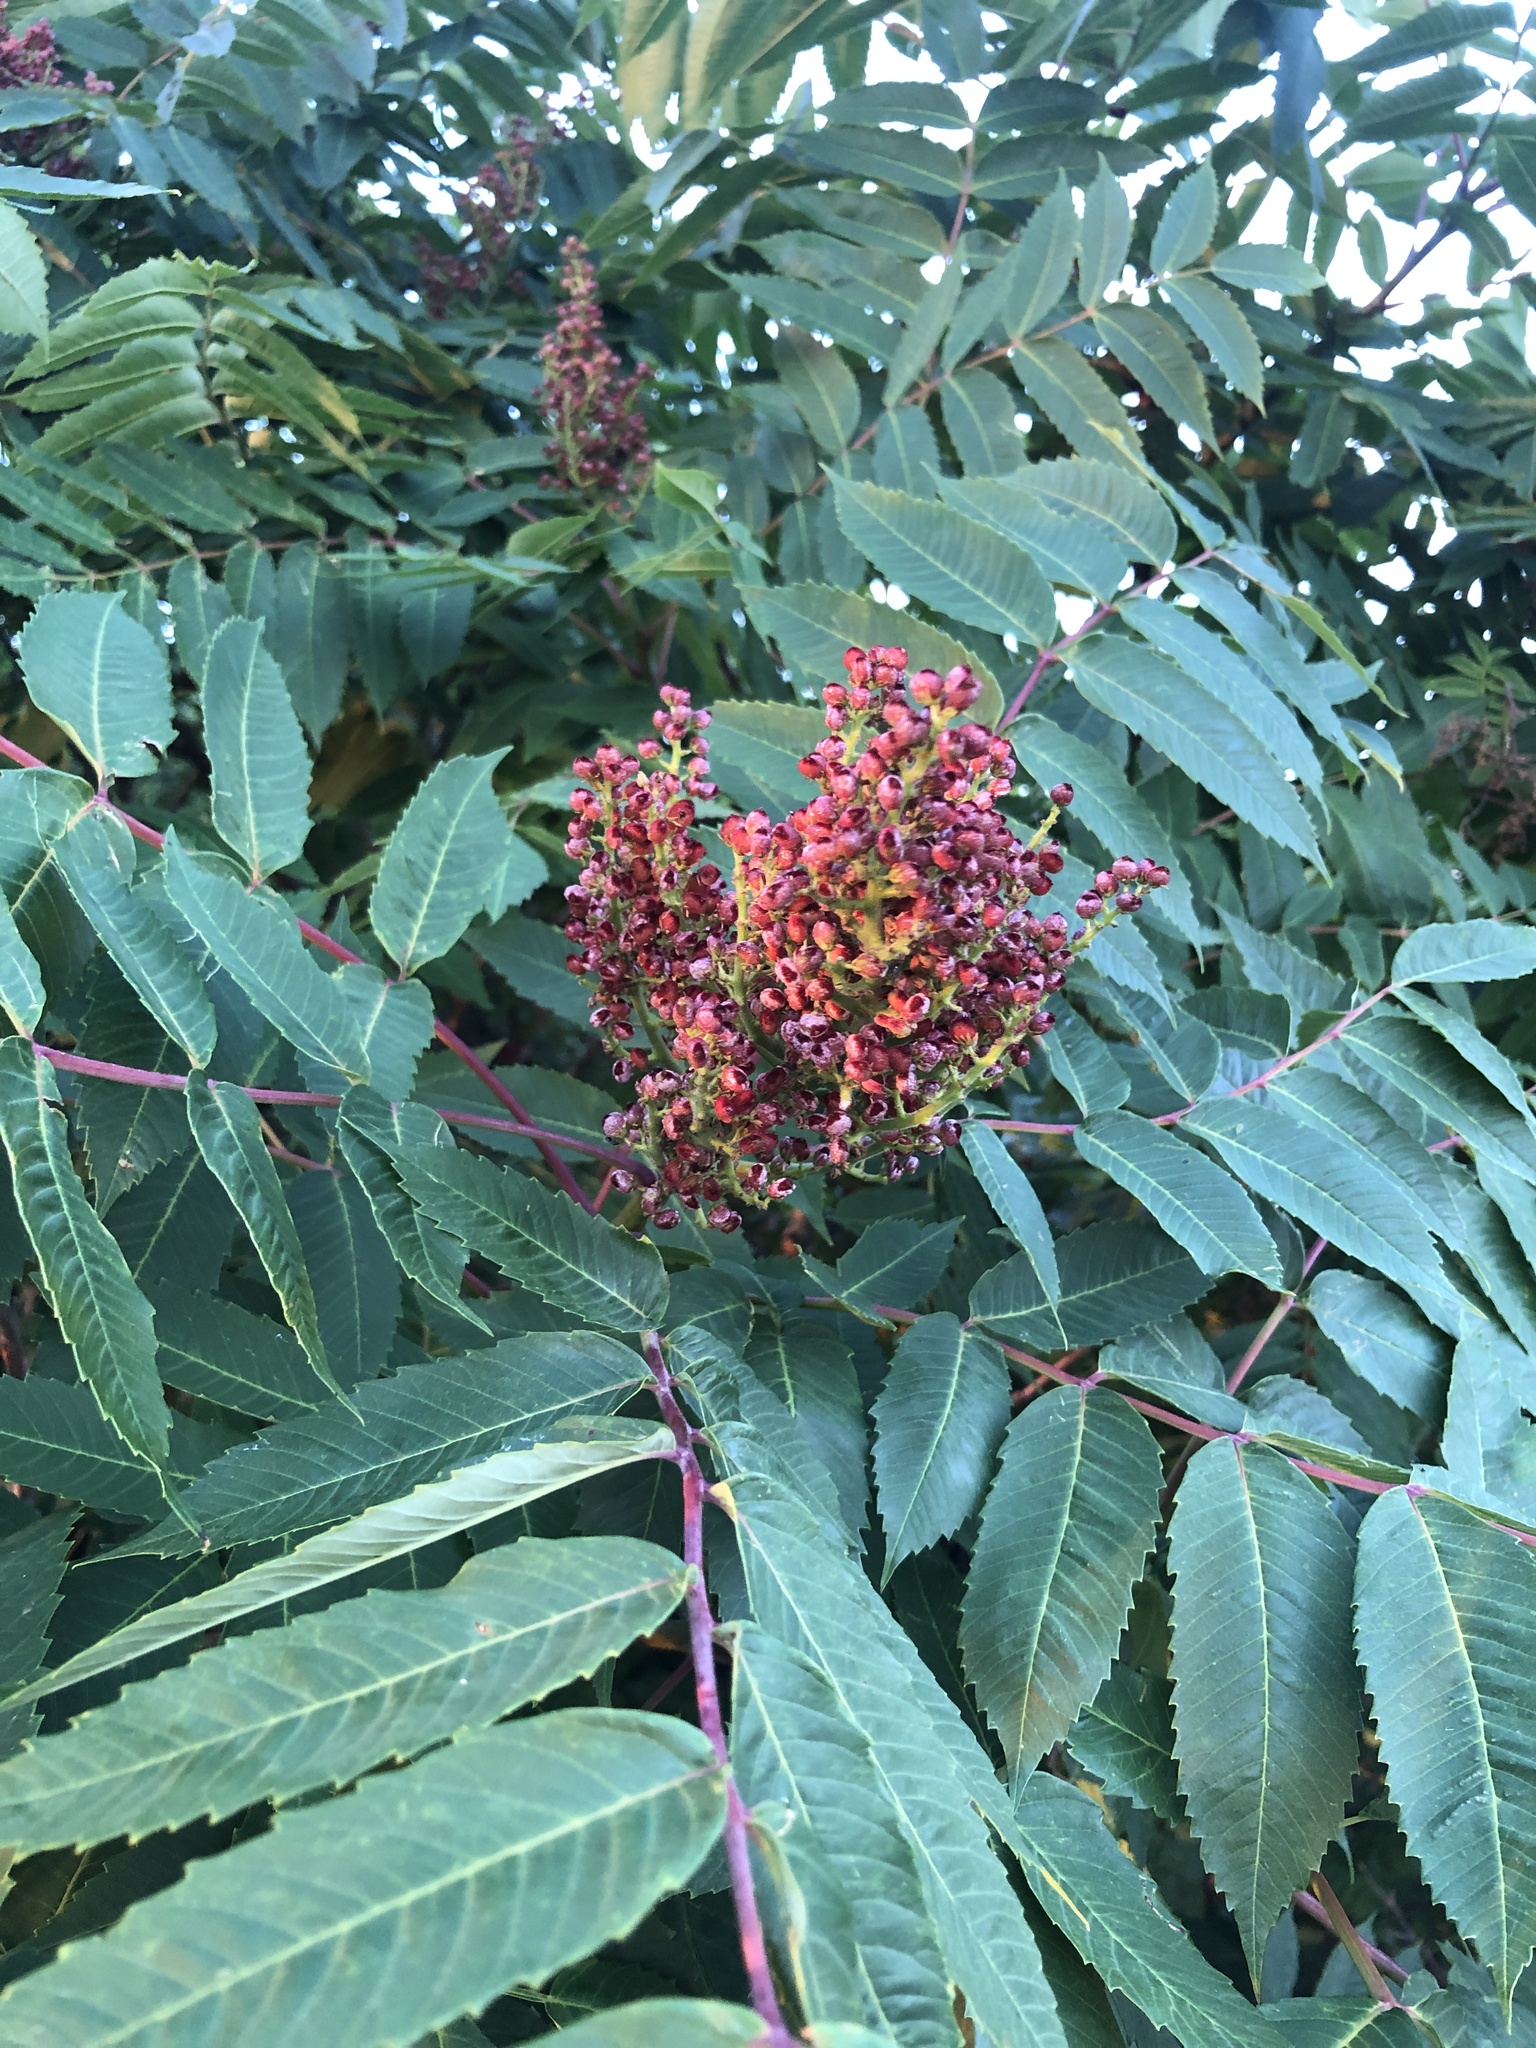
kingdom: Plantae
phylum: Tracheophyta
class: Magnoliopsida
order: Sapindales
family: Anacardiaceae
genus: Rhus
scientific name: Rhus glabra
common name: Scarlet sumac
